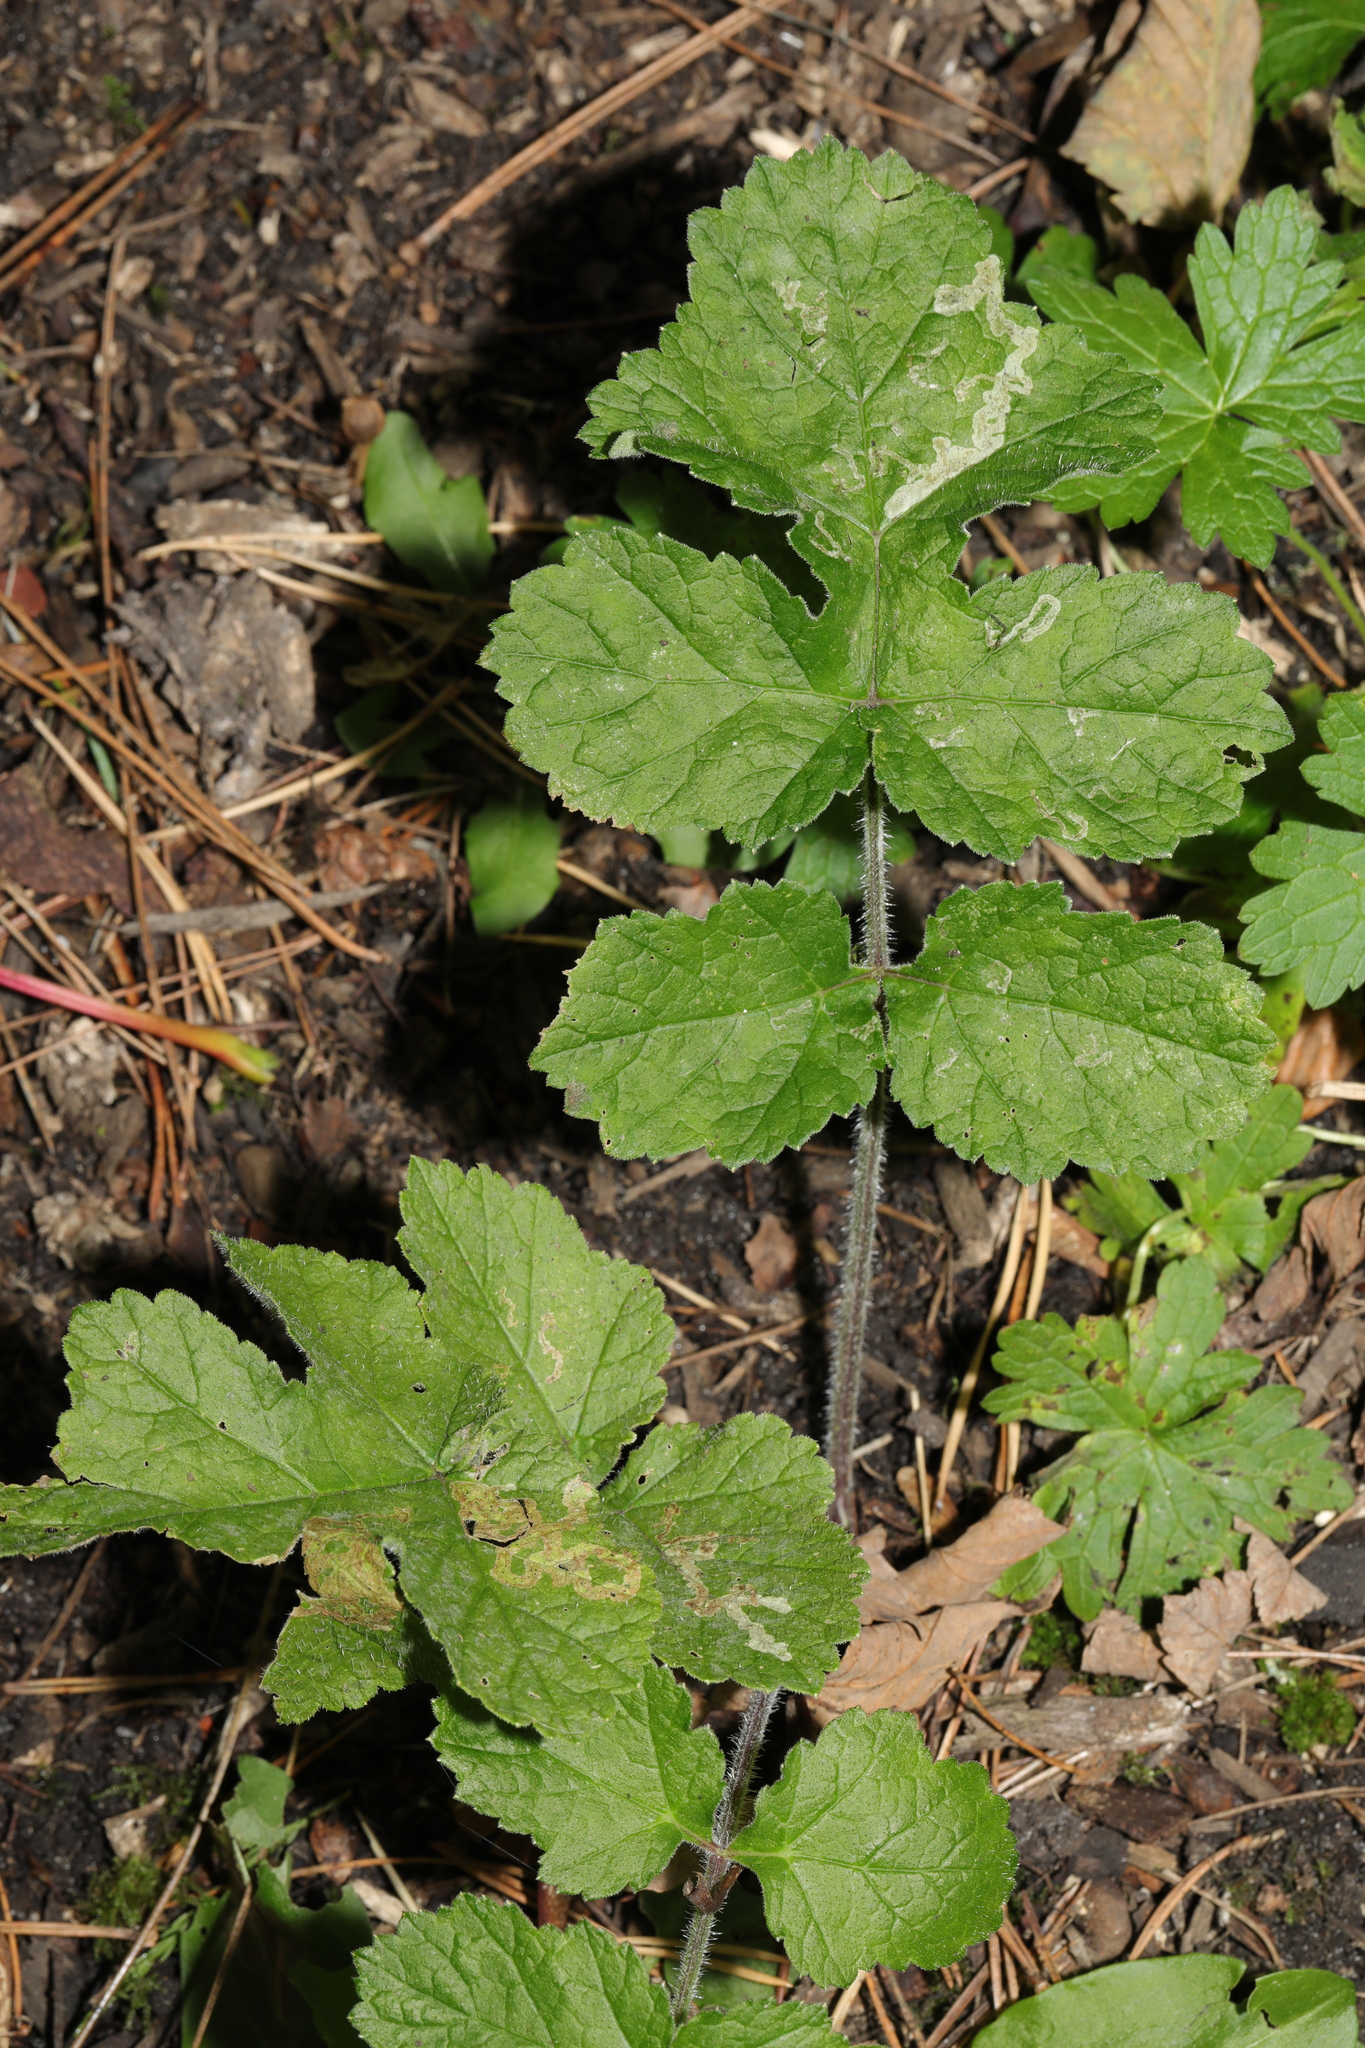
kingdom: Plantae
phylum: Tracheophyta
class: Magnoliopsida
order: Apiales
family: Apiaceae
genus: Heracleum
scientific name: Heracleum sphondylium
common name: Hogweed
